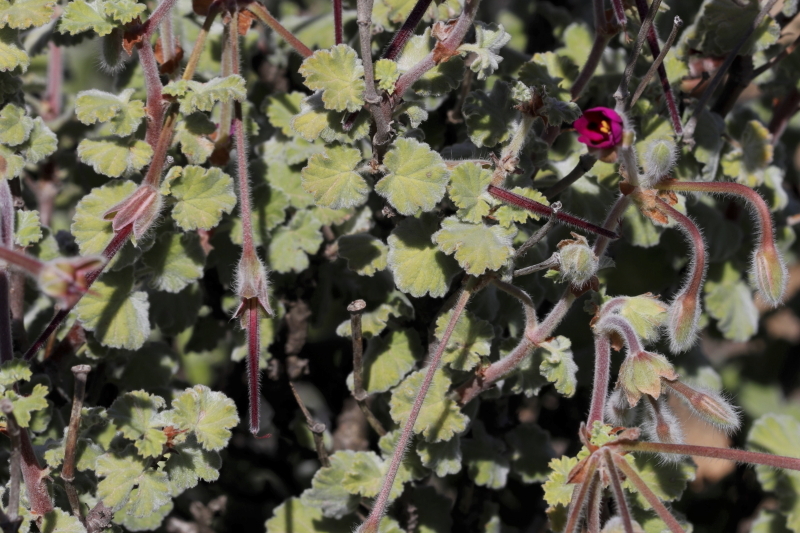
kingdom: Plantae
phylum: Tracheophyta
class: Magnoliopsida
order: Geraniales
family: Geraniaceae
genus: Pelargonium
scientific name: Pelargonium magenteum
